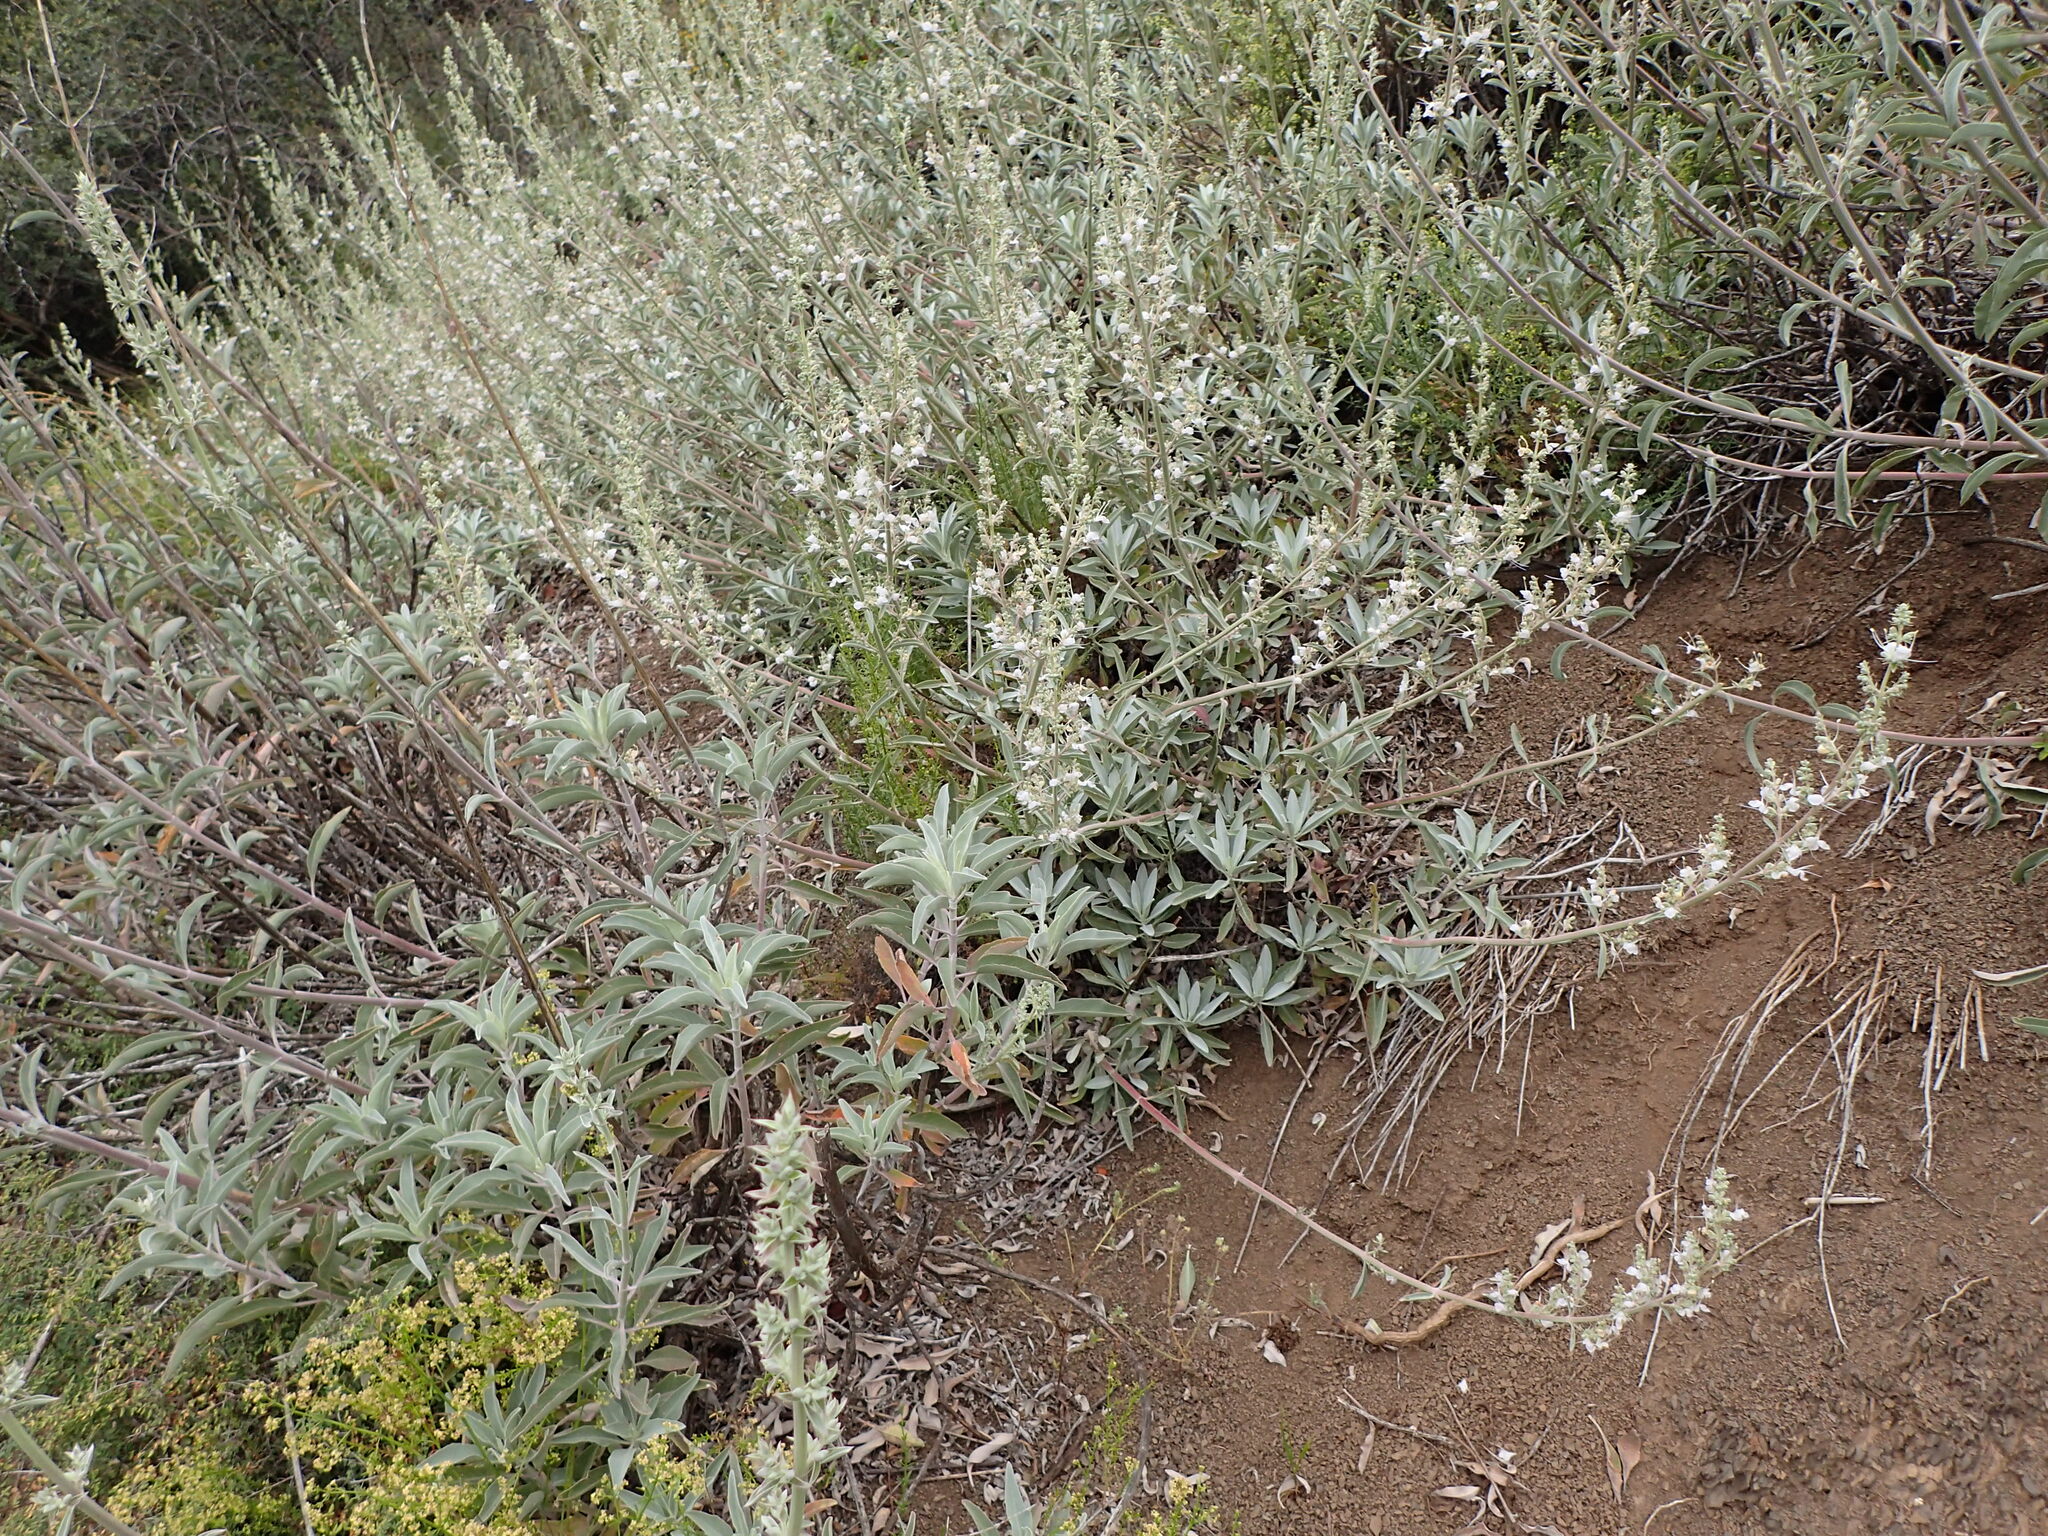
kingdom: Plantae
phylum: Tracheophyta
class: Magnoliopsida
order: Lamiales
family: Lamiaceae
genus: Salvia
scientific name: Salvia apiana
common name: White sage
